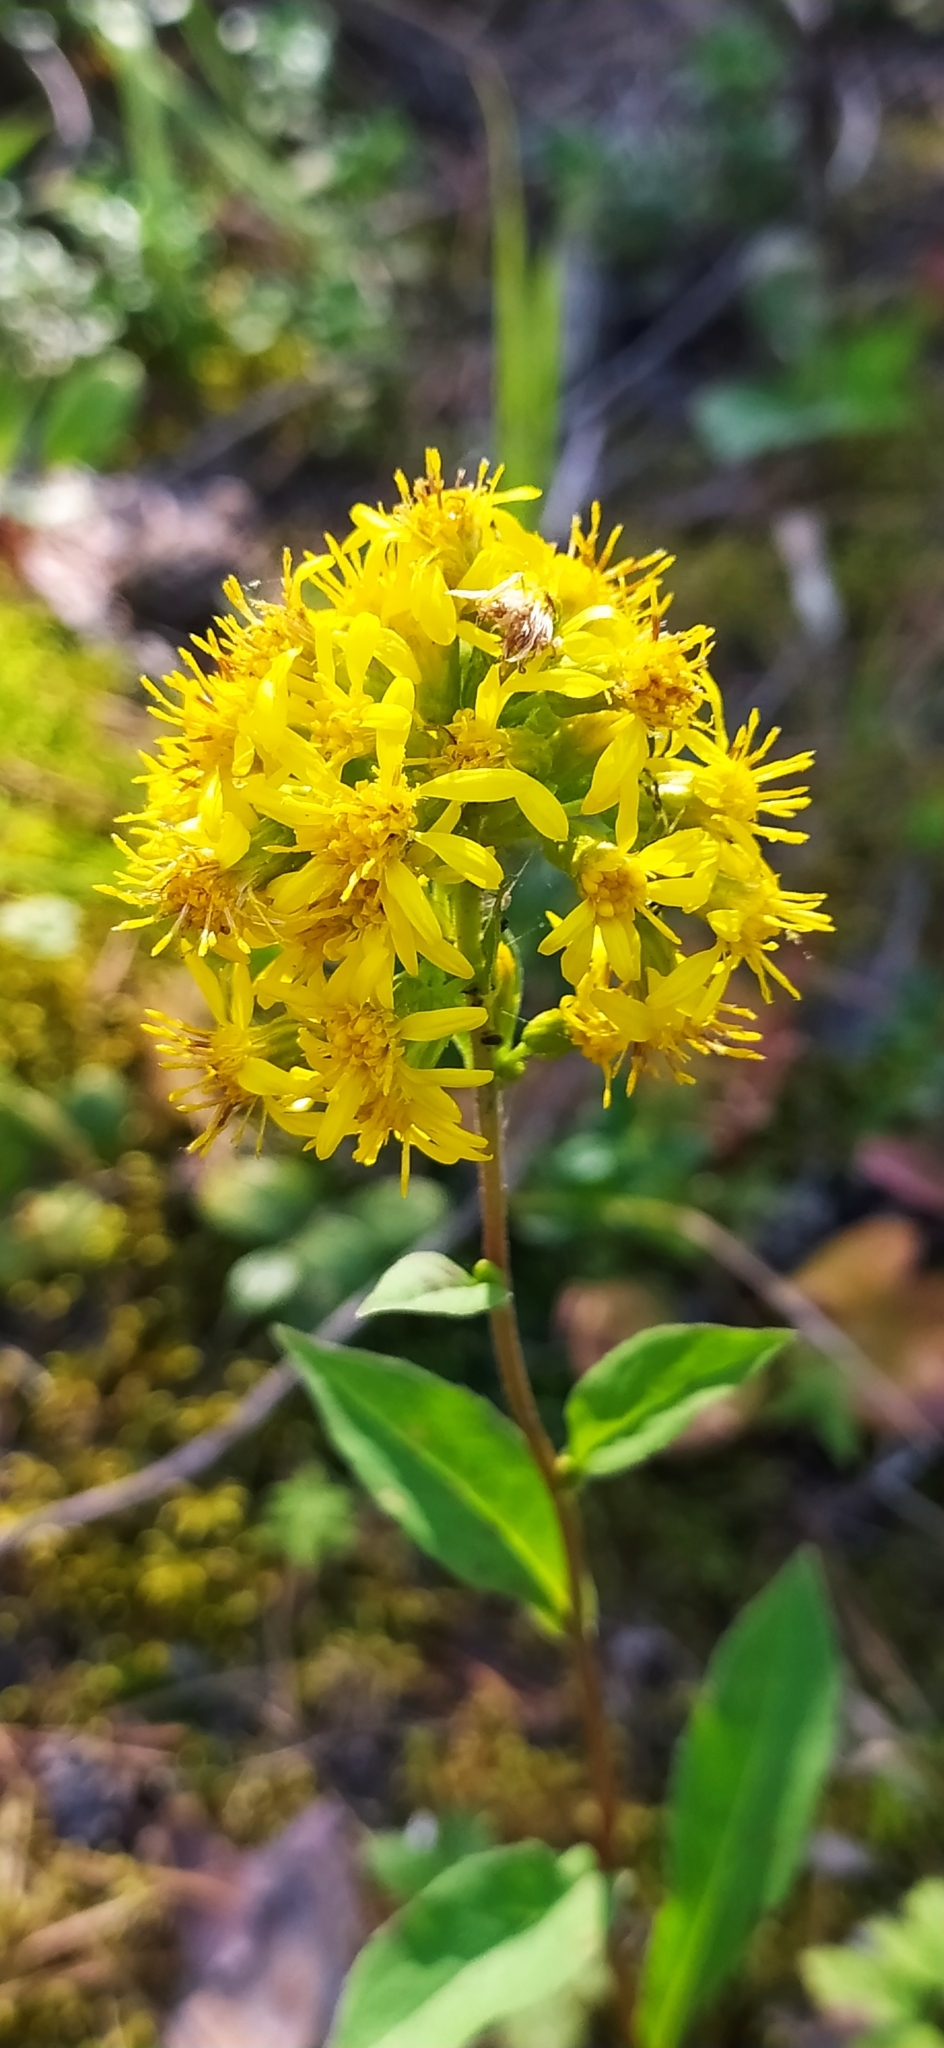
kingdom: Plantae
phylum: Tracheophyta
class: Magnoliopsida
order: Asterales
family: Asteraceae
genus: Solidago
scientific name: Solidago virgaurea
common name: Goldenrod
